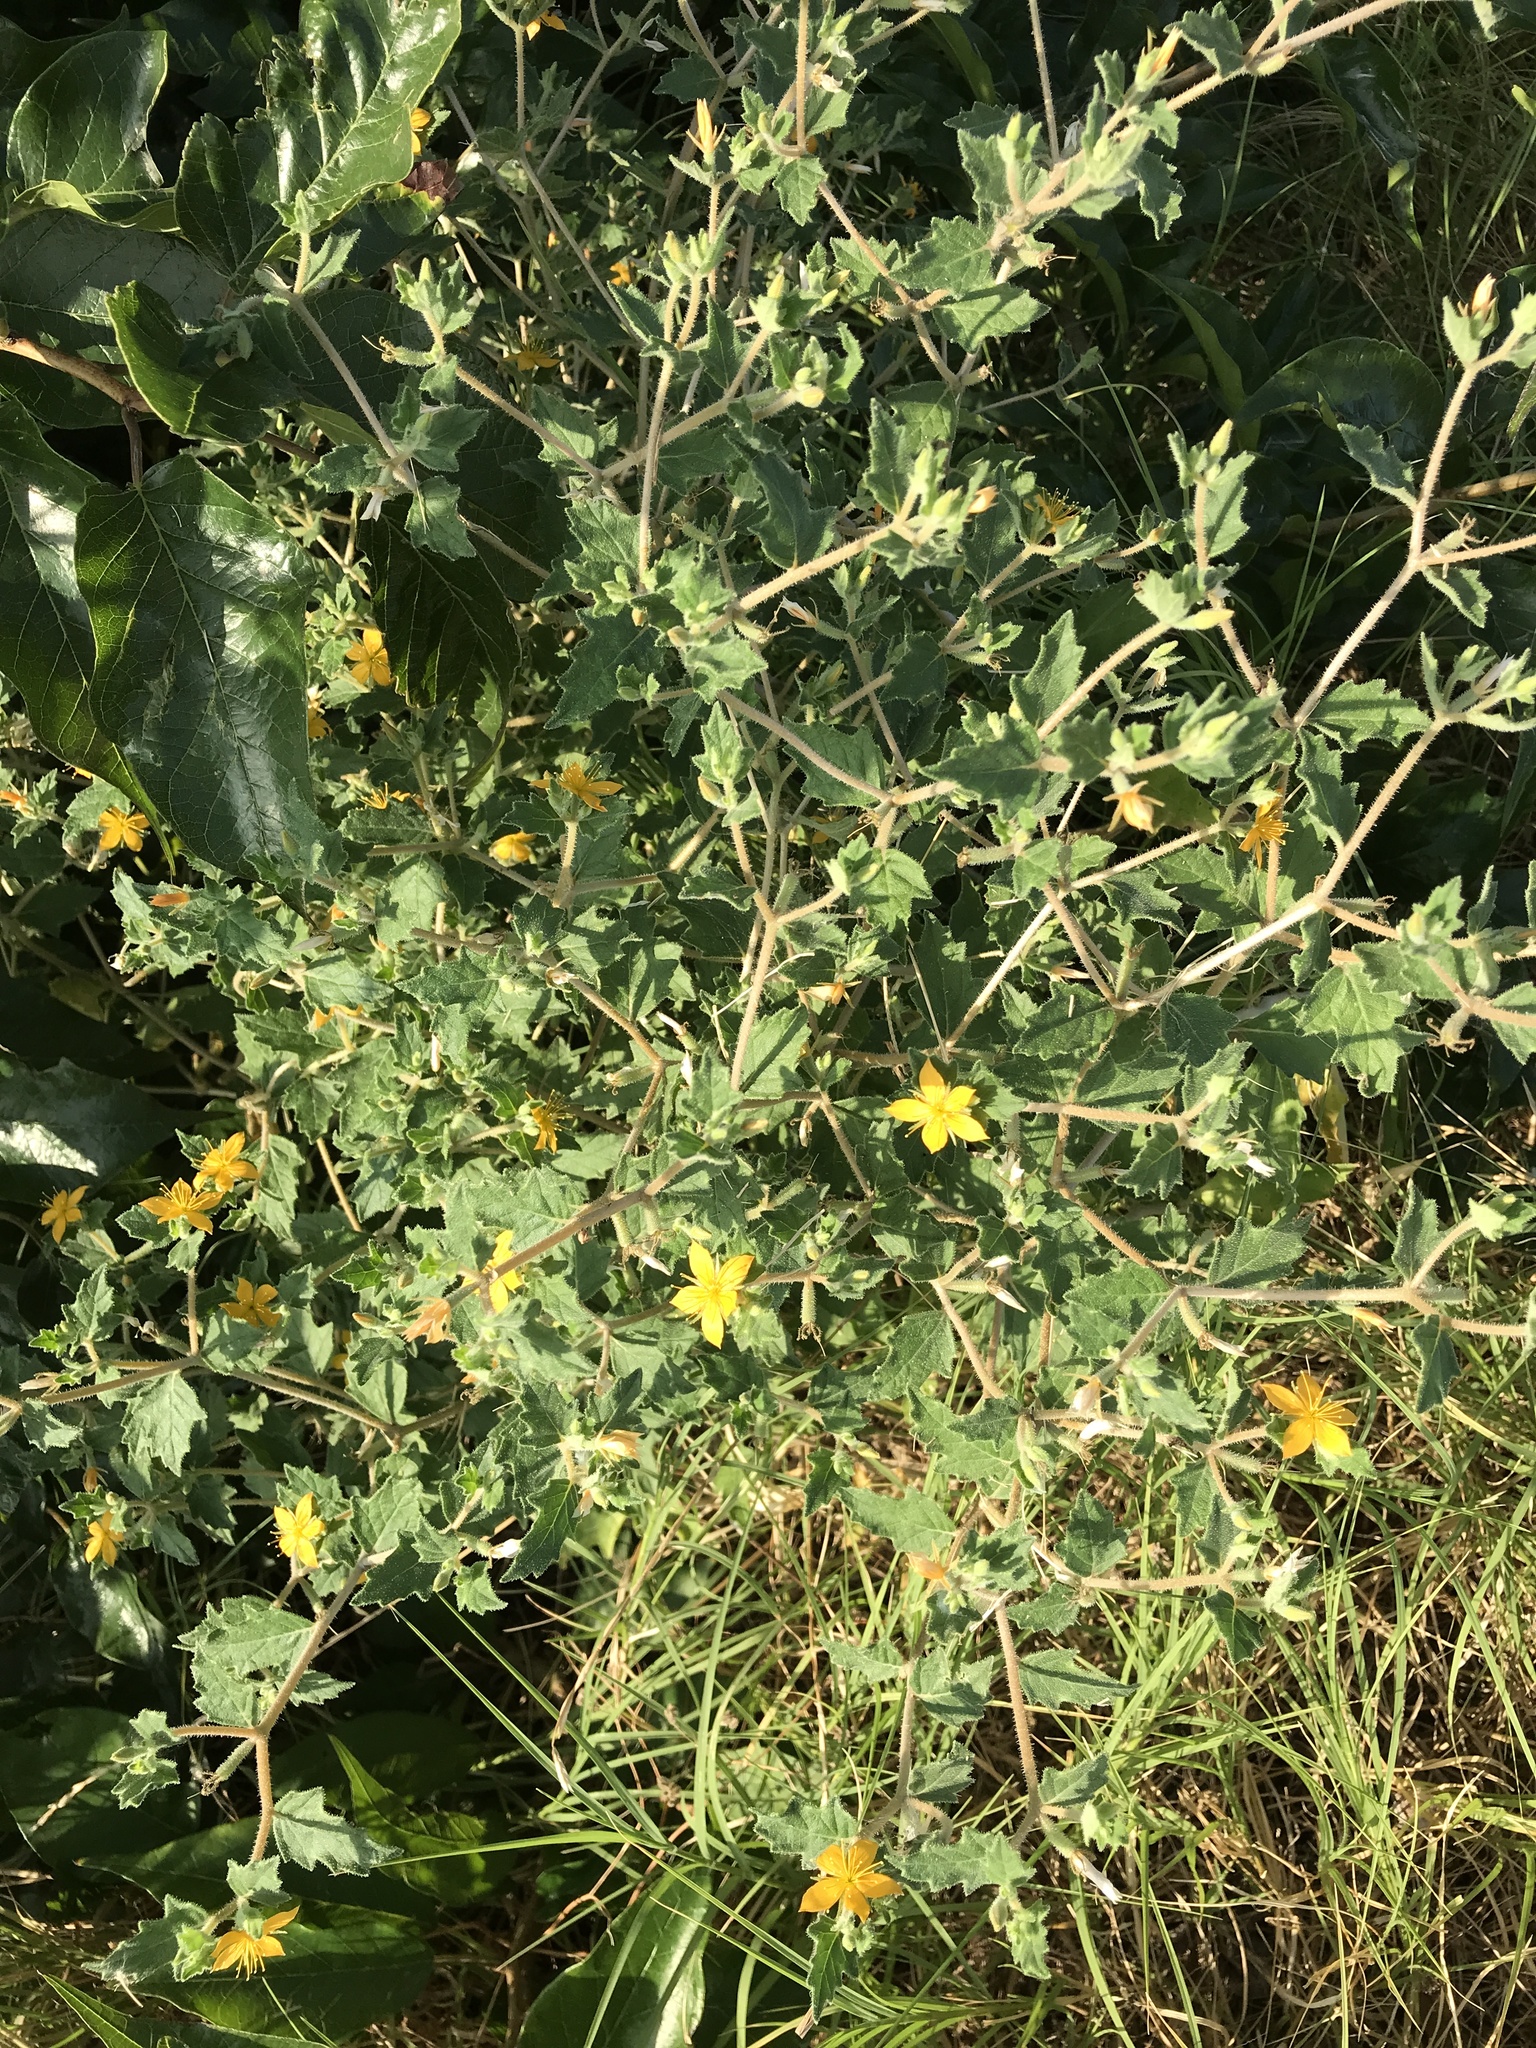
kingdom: Plantae
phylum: Tracheophyta
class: Magnoliopsida
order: Cornales
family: Loasaceae
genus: Mentzelia
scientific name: Mentzelia oligosperma
